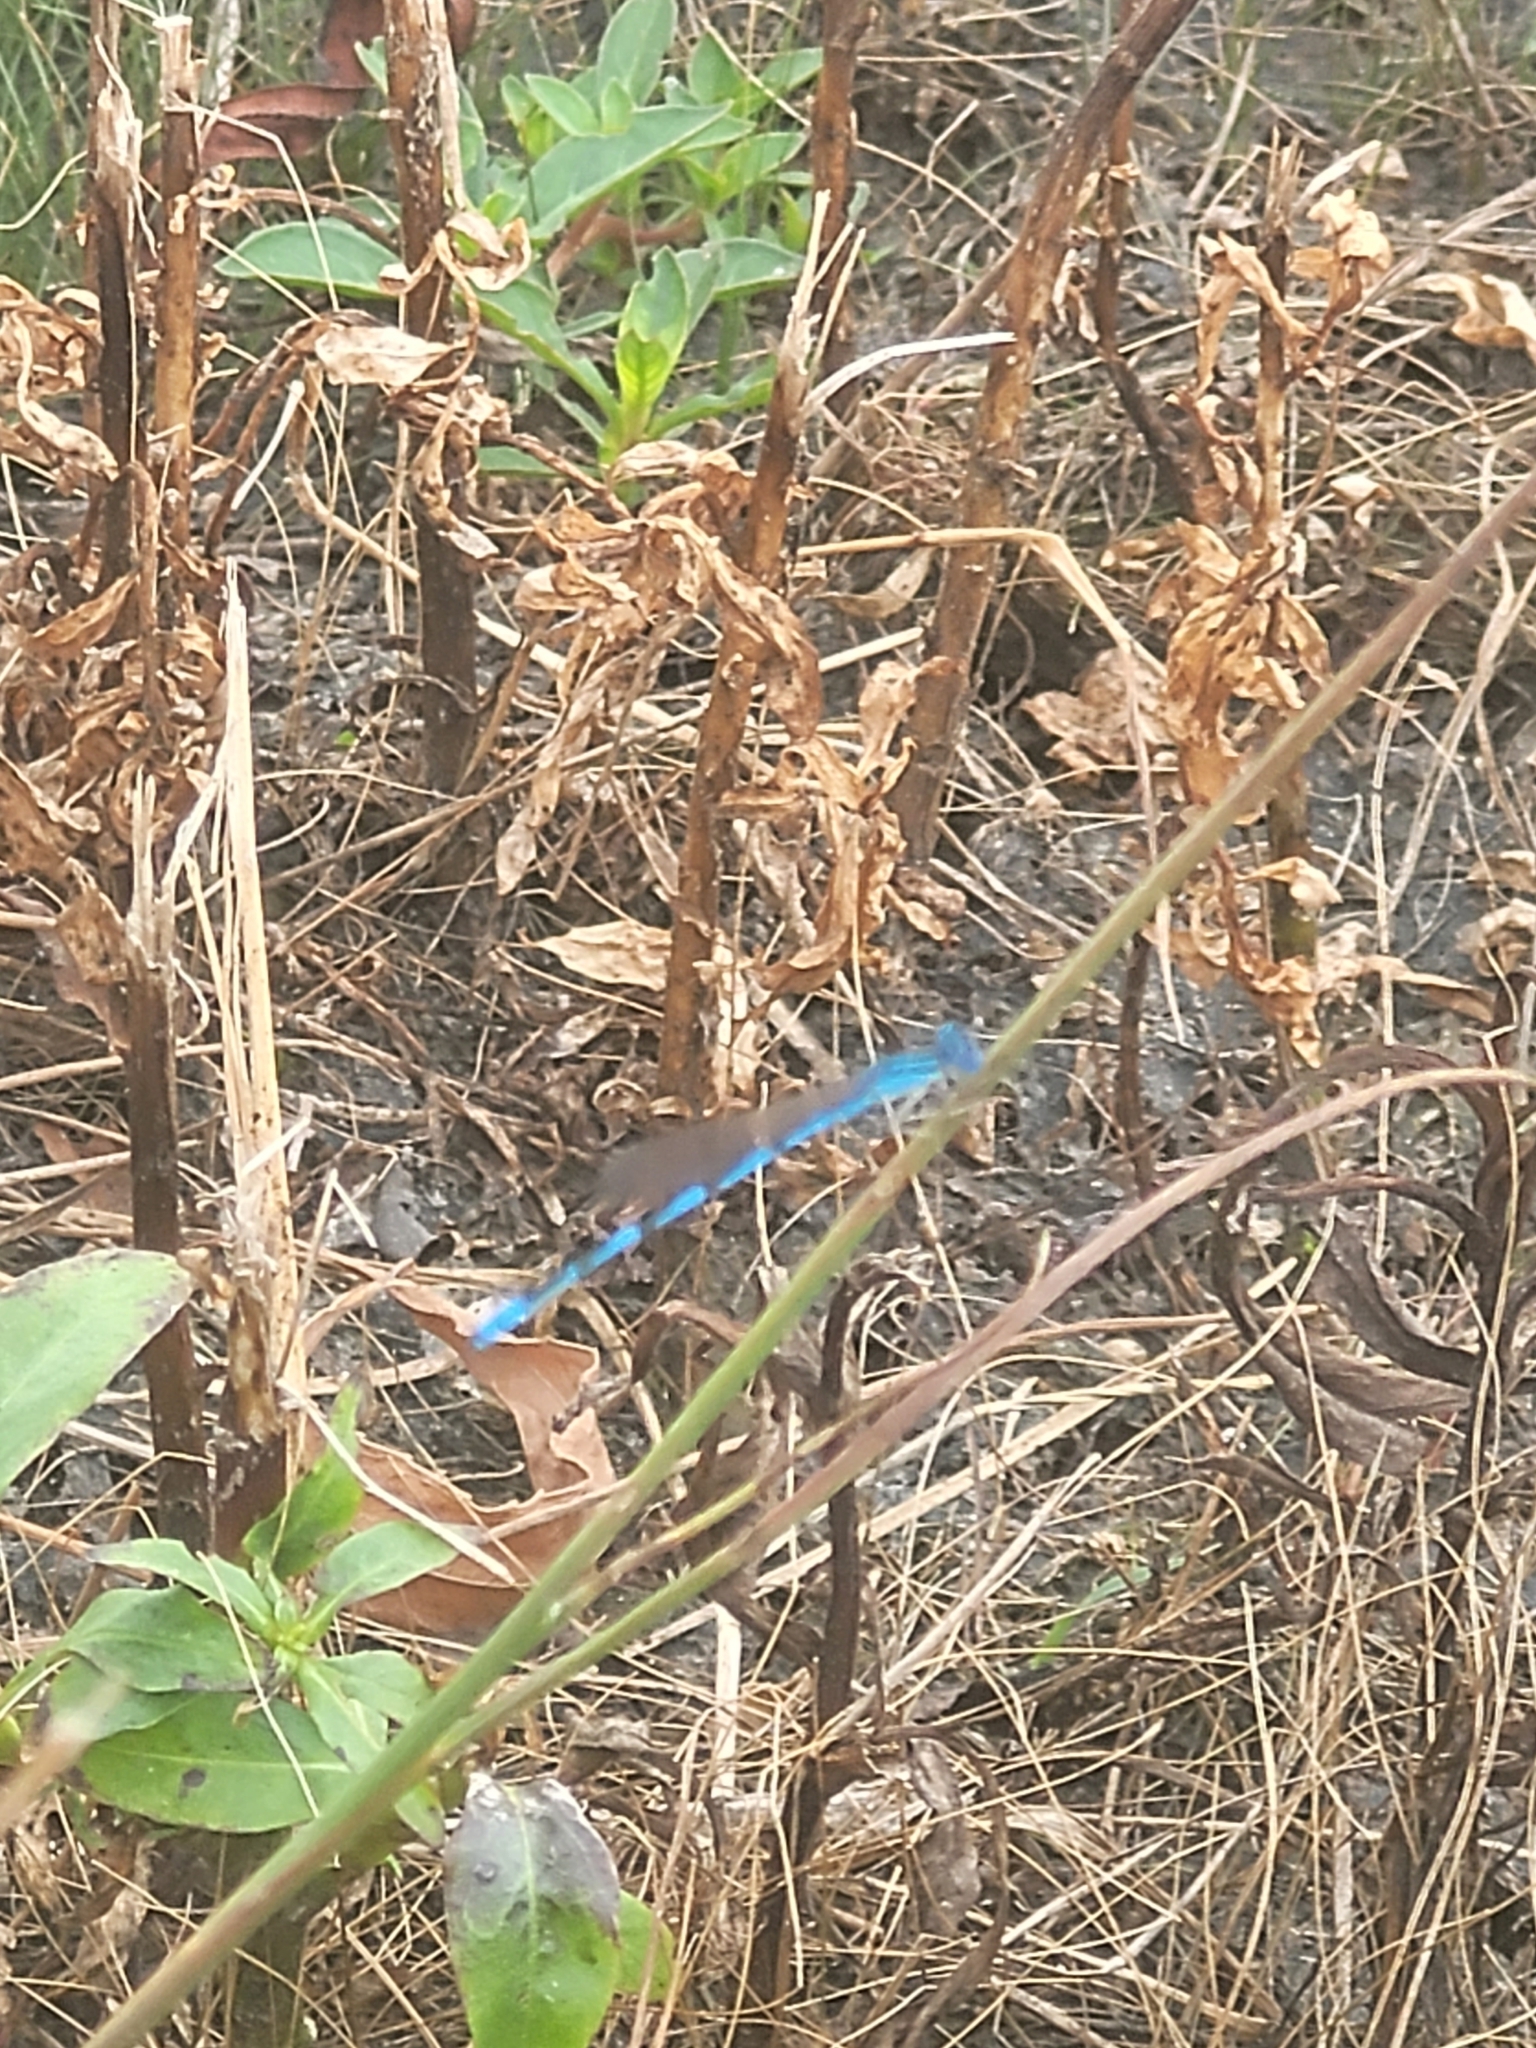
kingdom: Animalia
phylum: Arthropoda
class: Insecta
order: Odonata
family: Coenagrionidae
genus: Enallagma
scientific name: Enallagma basidens
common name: Double-striped bluet
